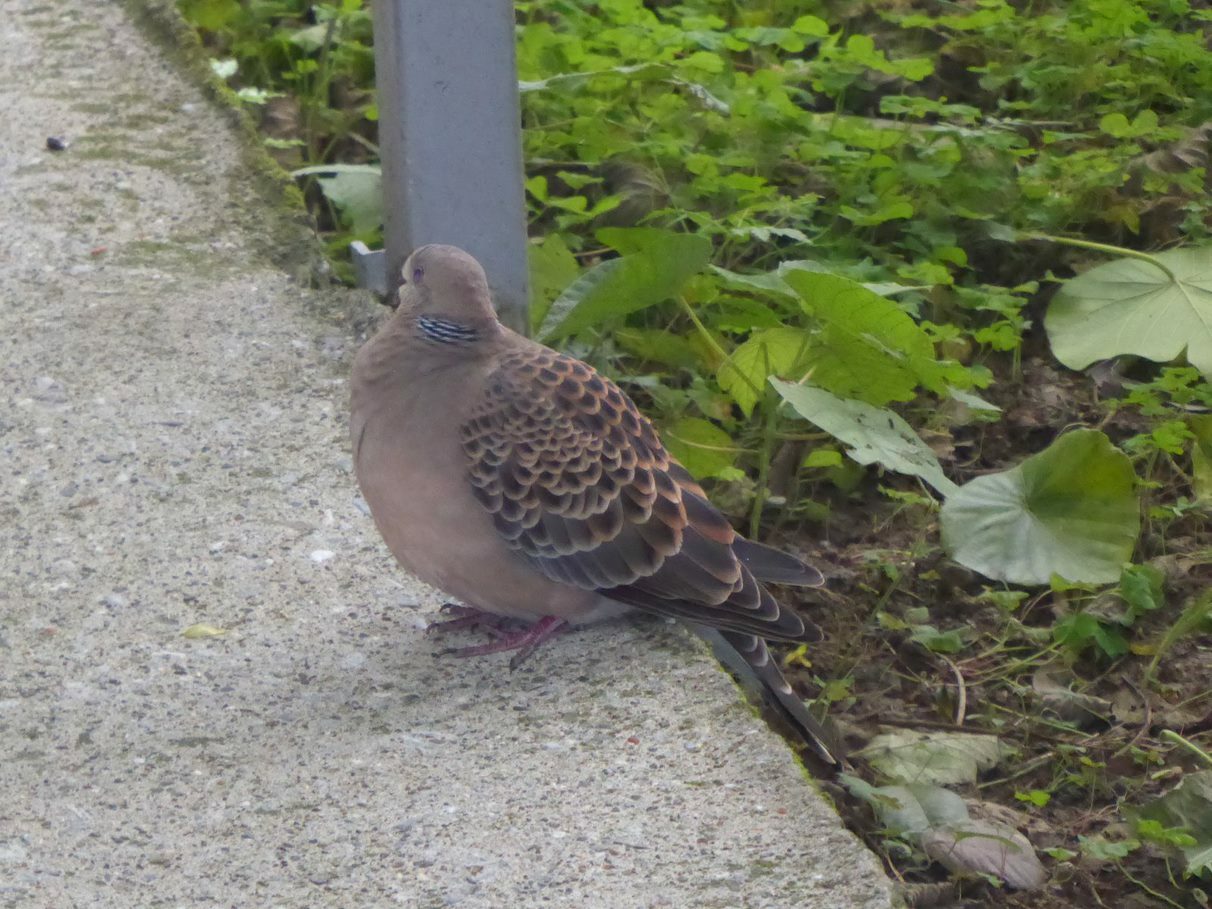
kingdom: Animalia
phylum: Chordata
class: Aves
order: Columbiformes
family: Columbidae
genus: Streptopelia
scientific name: Streptopelia orientalis
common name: Oriental turtle dove
